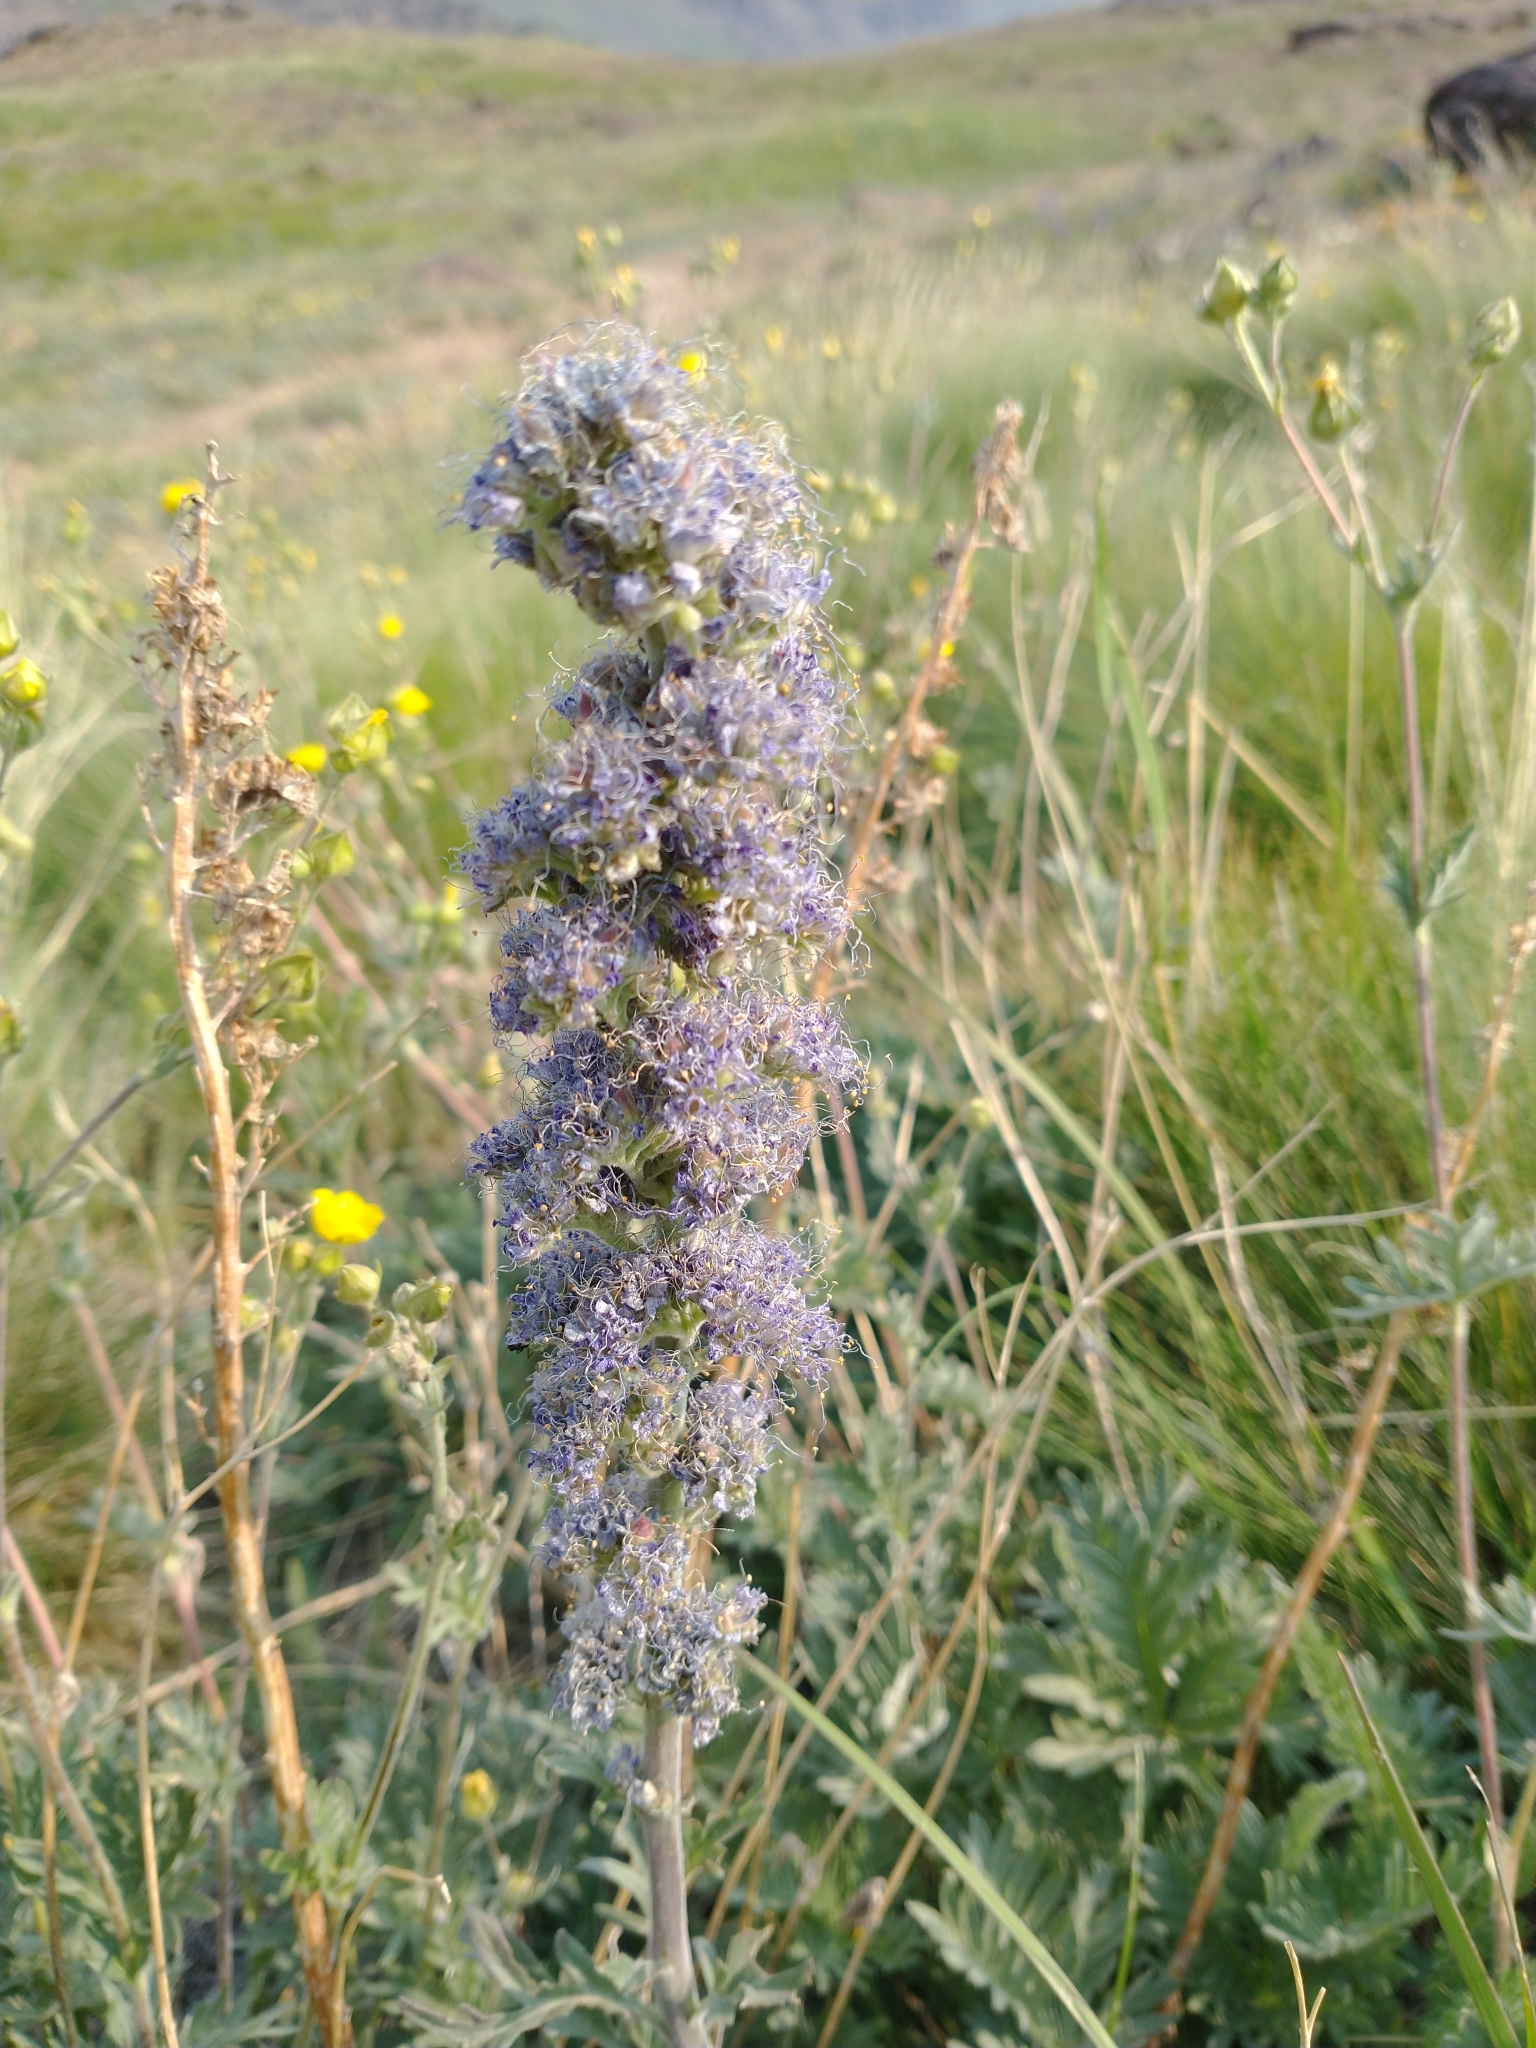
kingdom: Plantae
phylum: Tracheophyta
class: Magnoliopsida
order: Boraginales
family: Hydrophyllaceae
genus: Phacelia
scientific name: Phacelia sericea
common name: Silky phacelia
